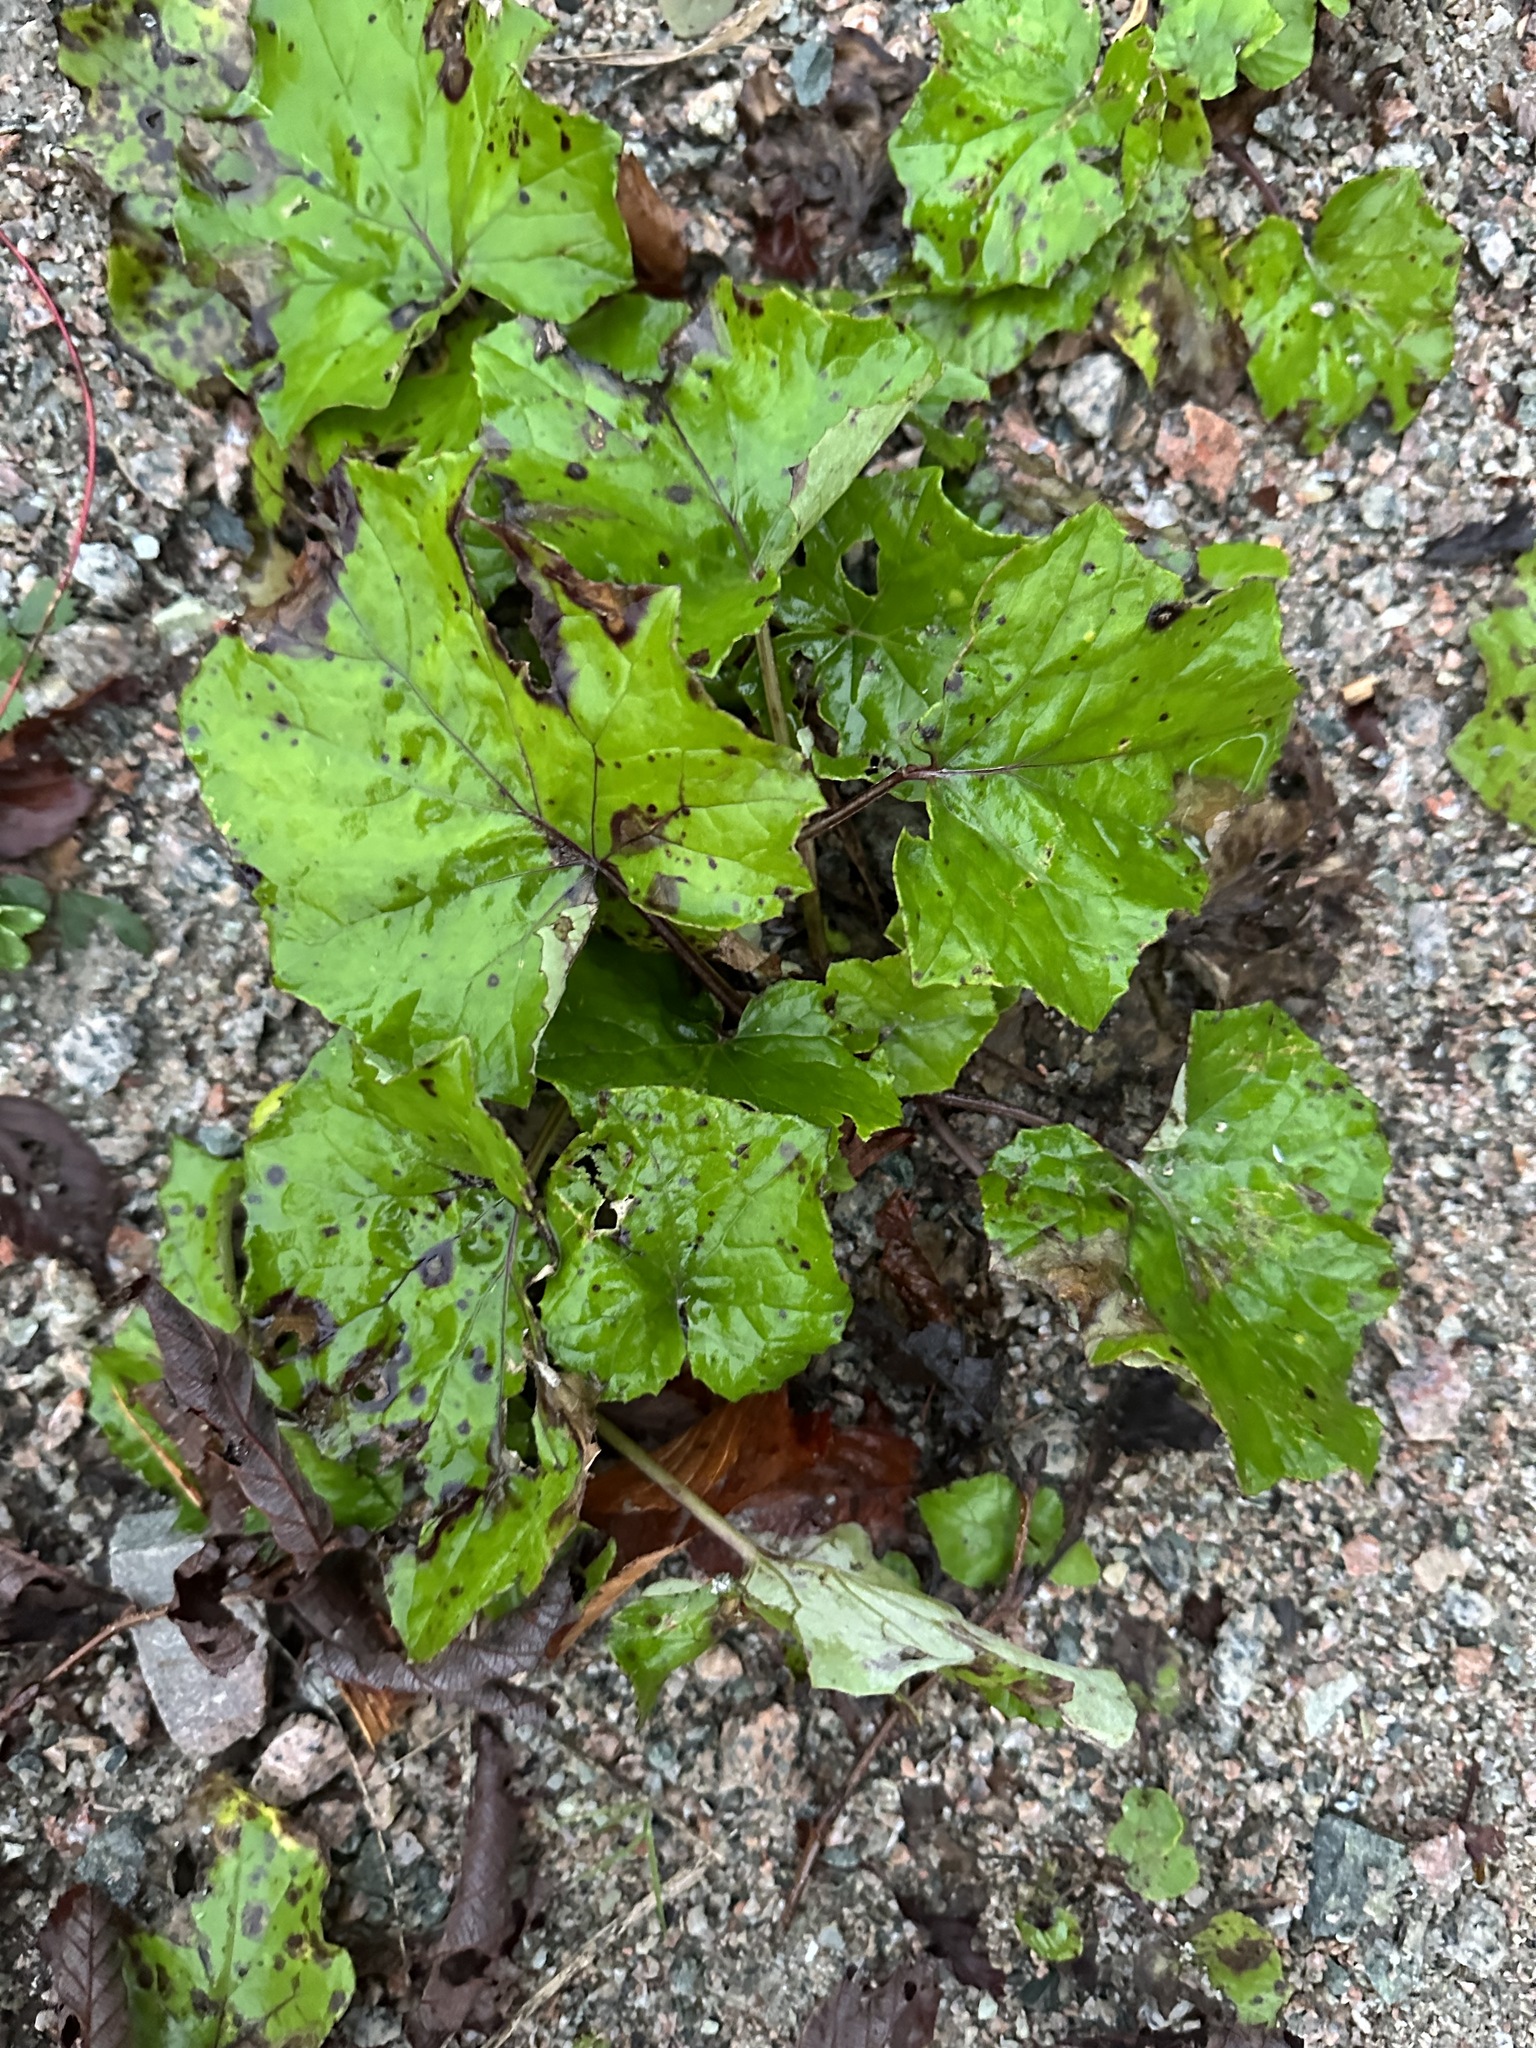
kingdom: Plantae
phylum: Tracheophyta
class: Magnoliopsida
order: Asterales
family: Asteraceae
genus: Tussilago
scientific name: Tussilago farfara
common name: Coltsfoot
